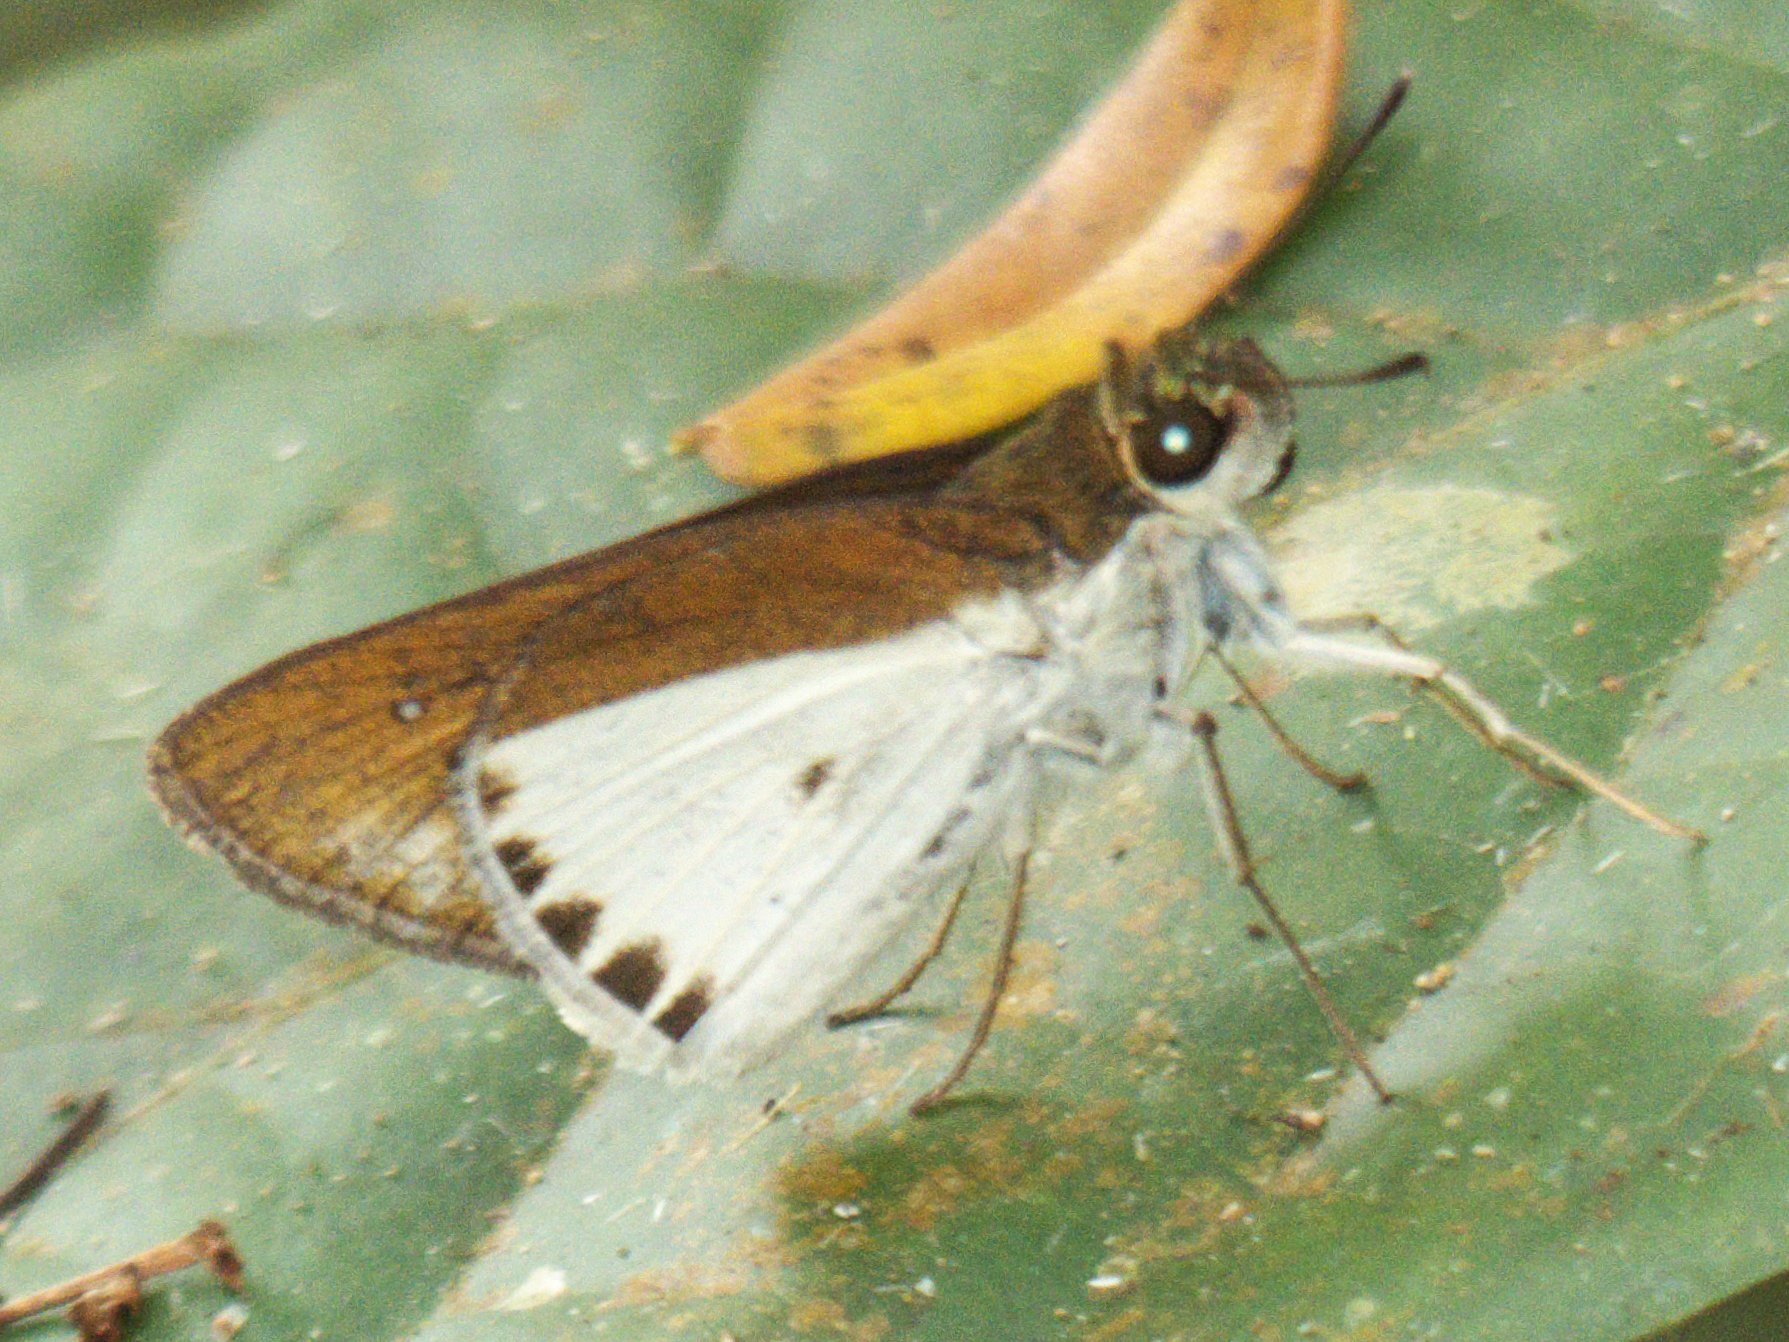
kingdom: Animalia
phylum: Arthropoda
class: Insecta
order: Lepidoptera
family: Hesperiidae
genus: Iton
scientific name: Iton semamora
